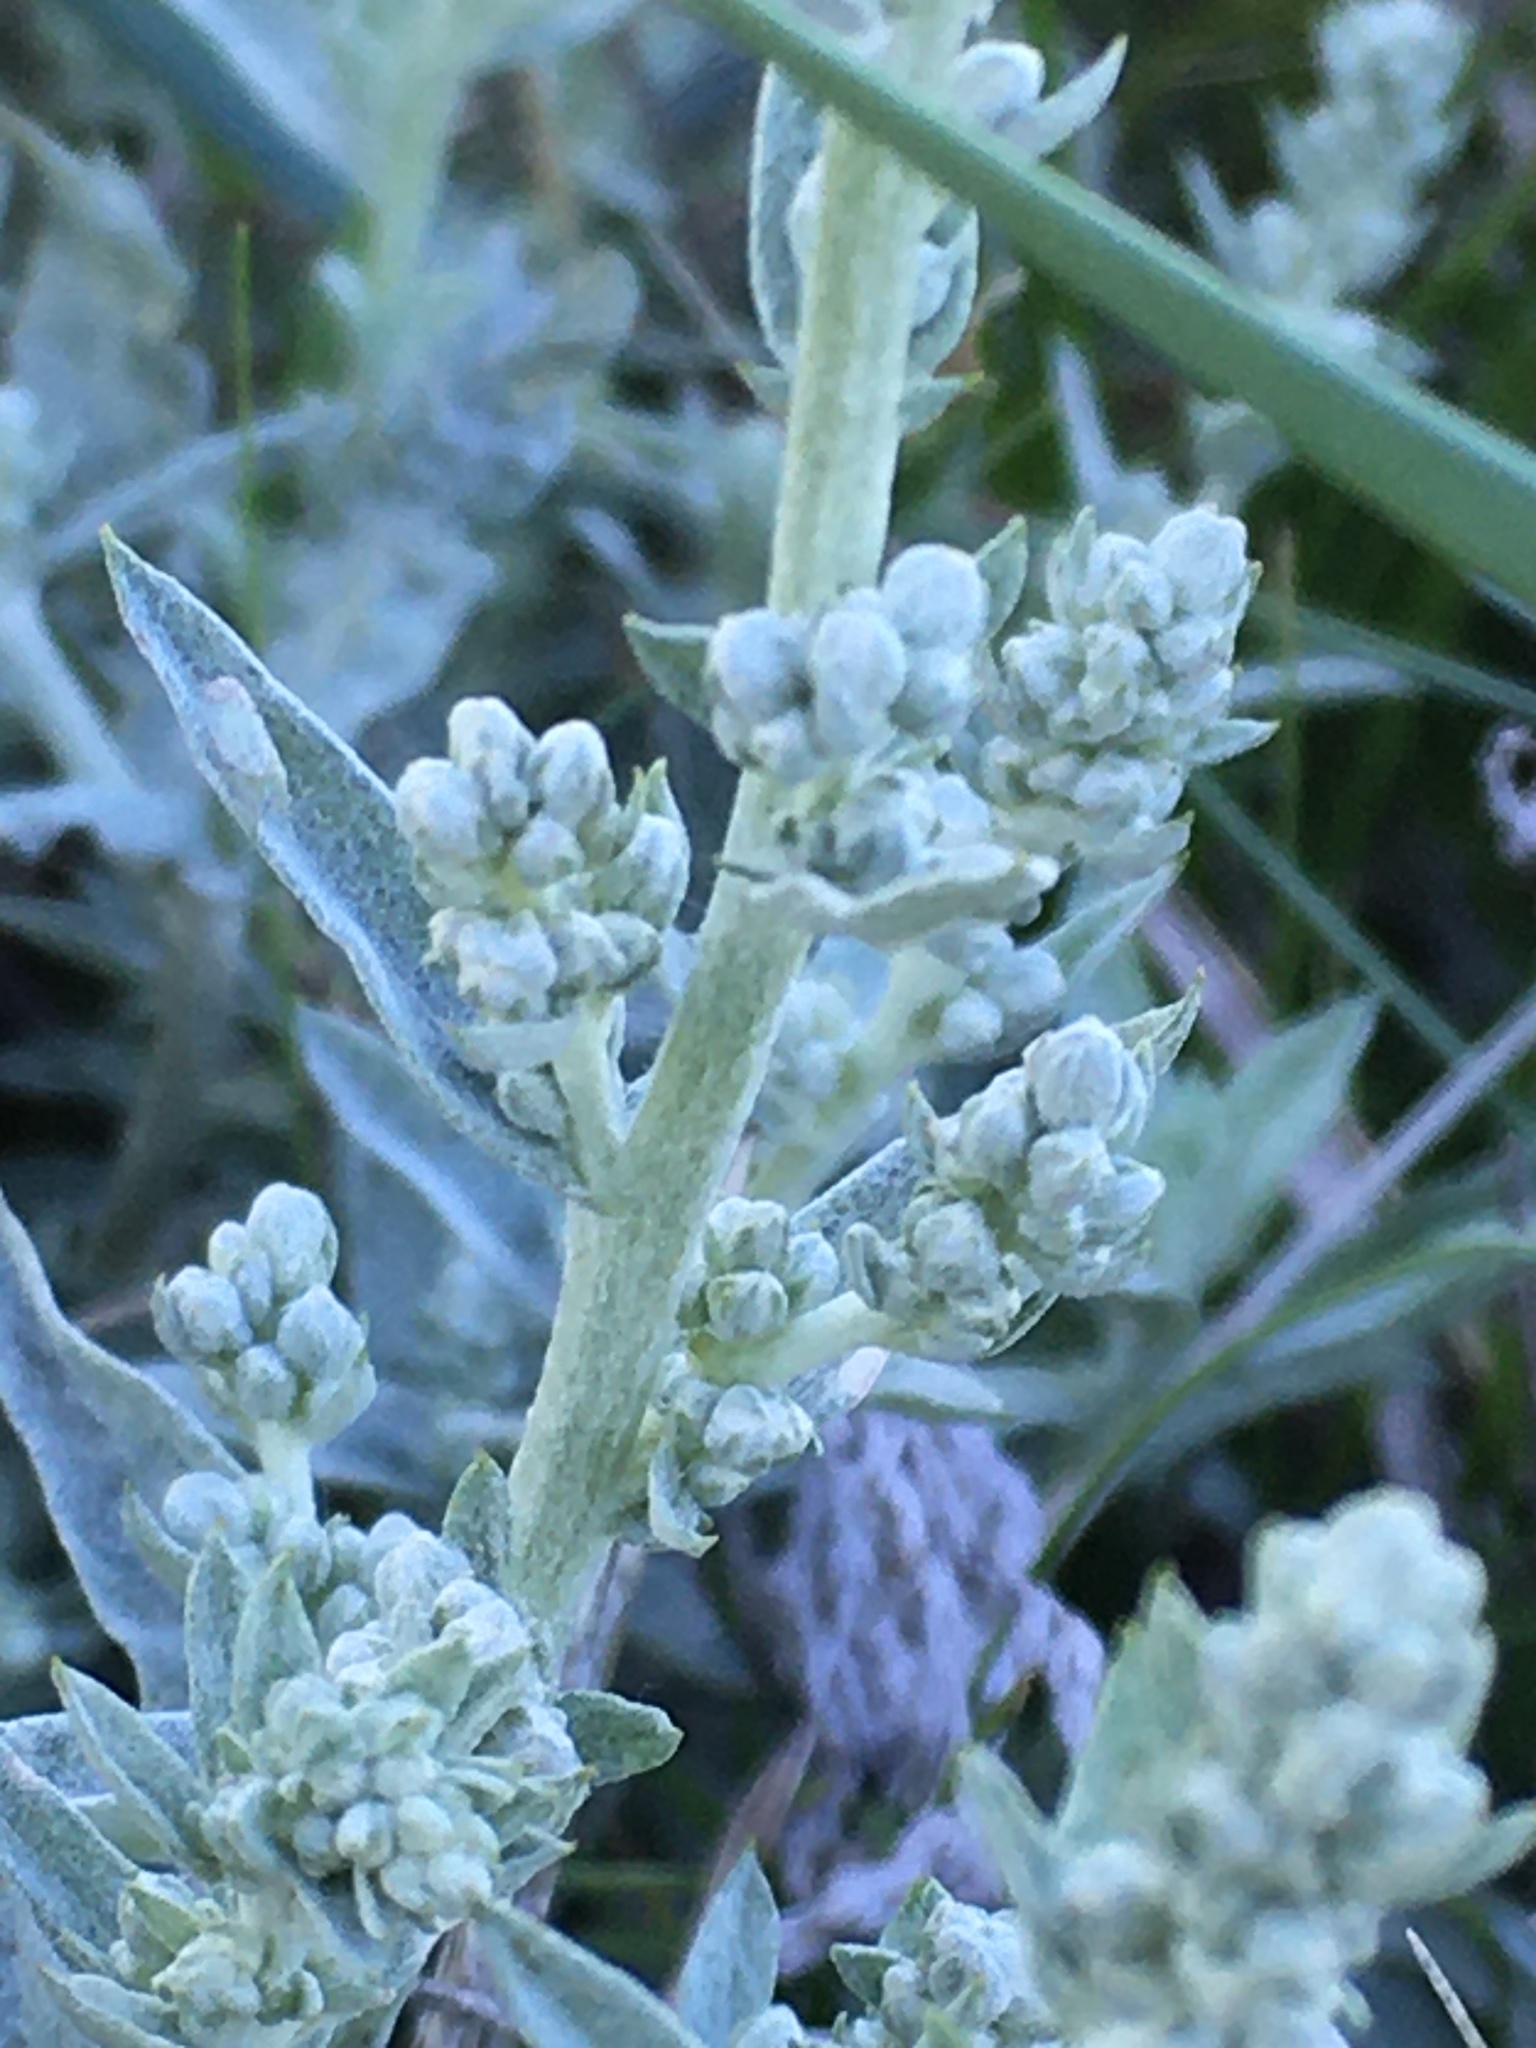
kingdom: Plantae
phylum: Tracheophyta
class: Magnoliopsida
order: Asterales
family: Asteraceae
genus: Artemisia
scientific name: Artemisia ludoviciana
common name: Western mugwort
